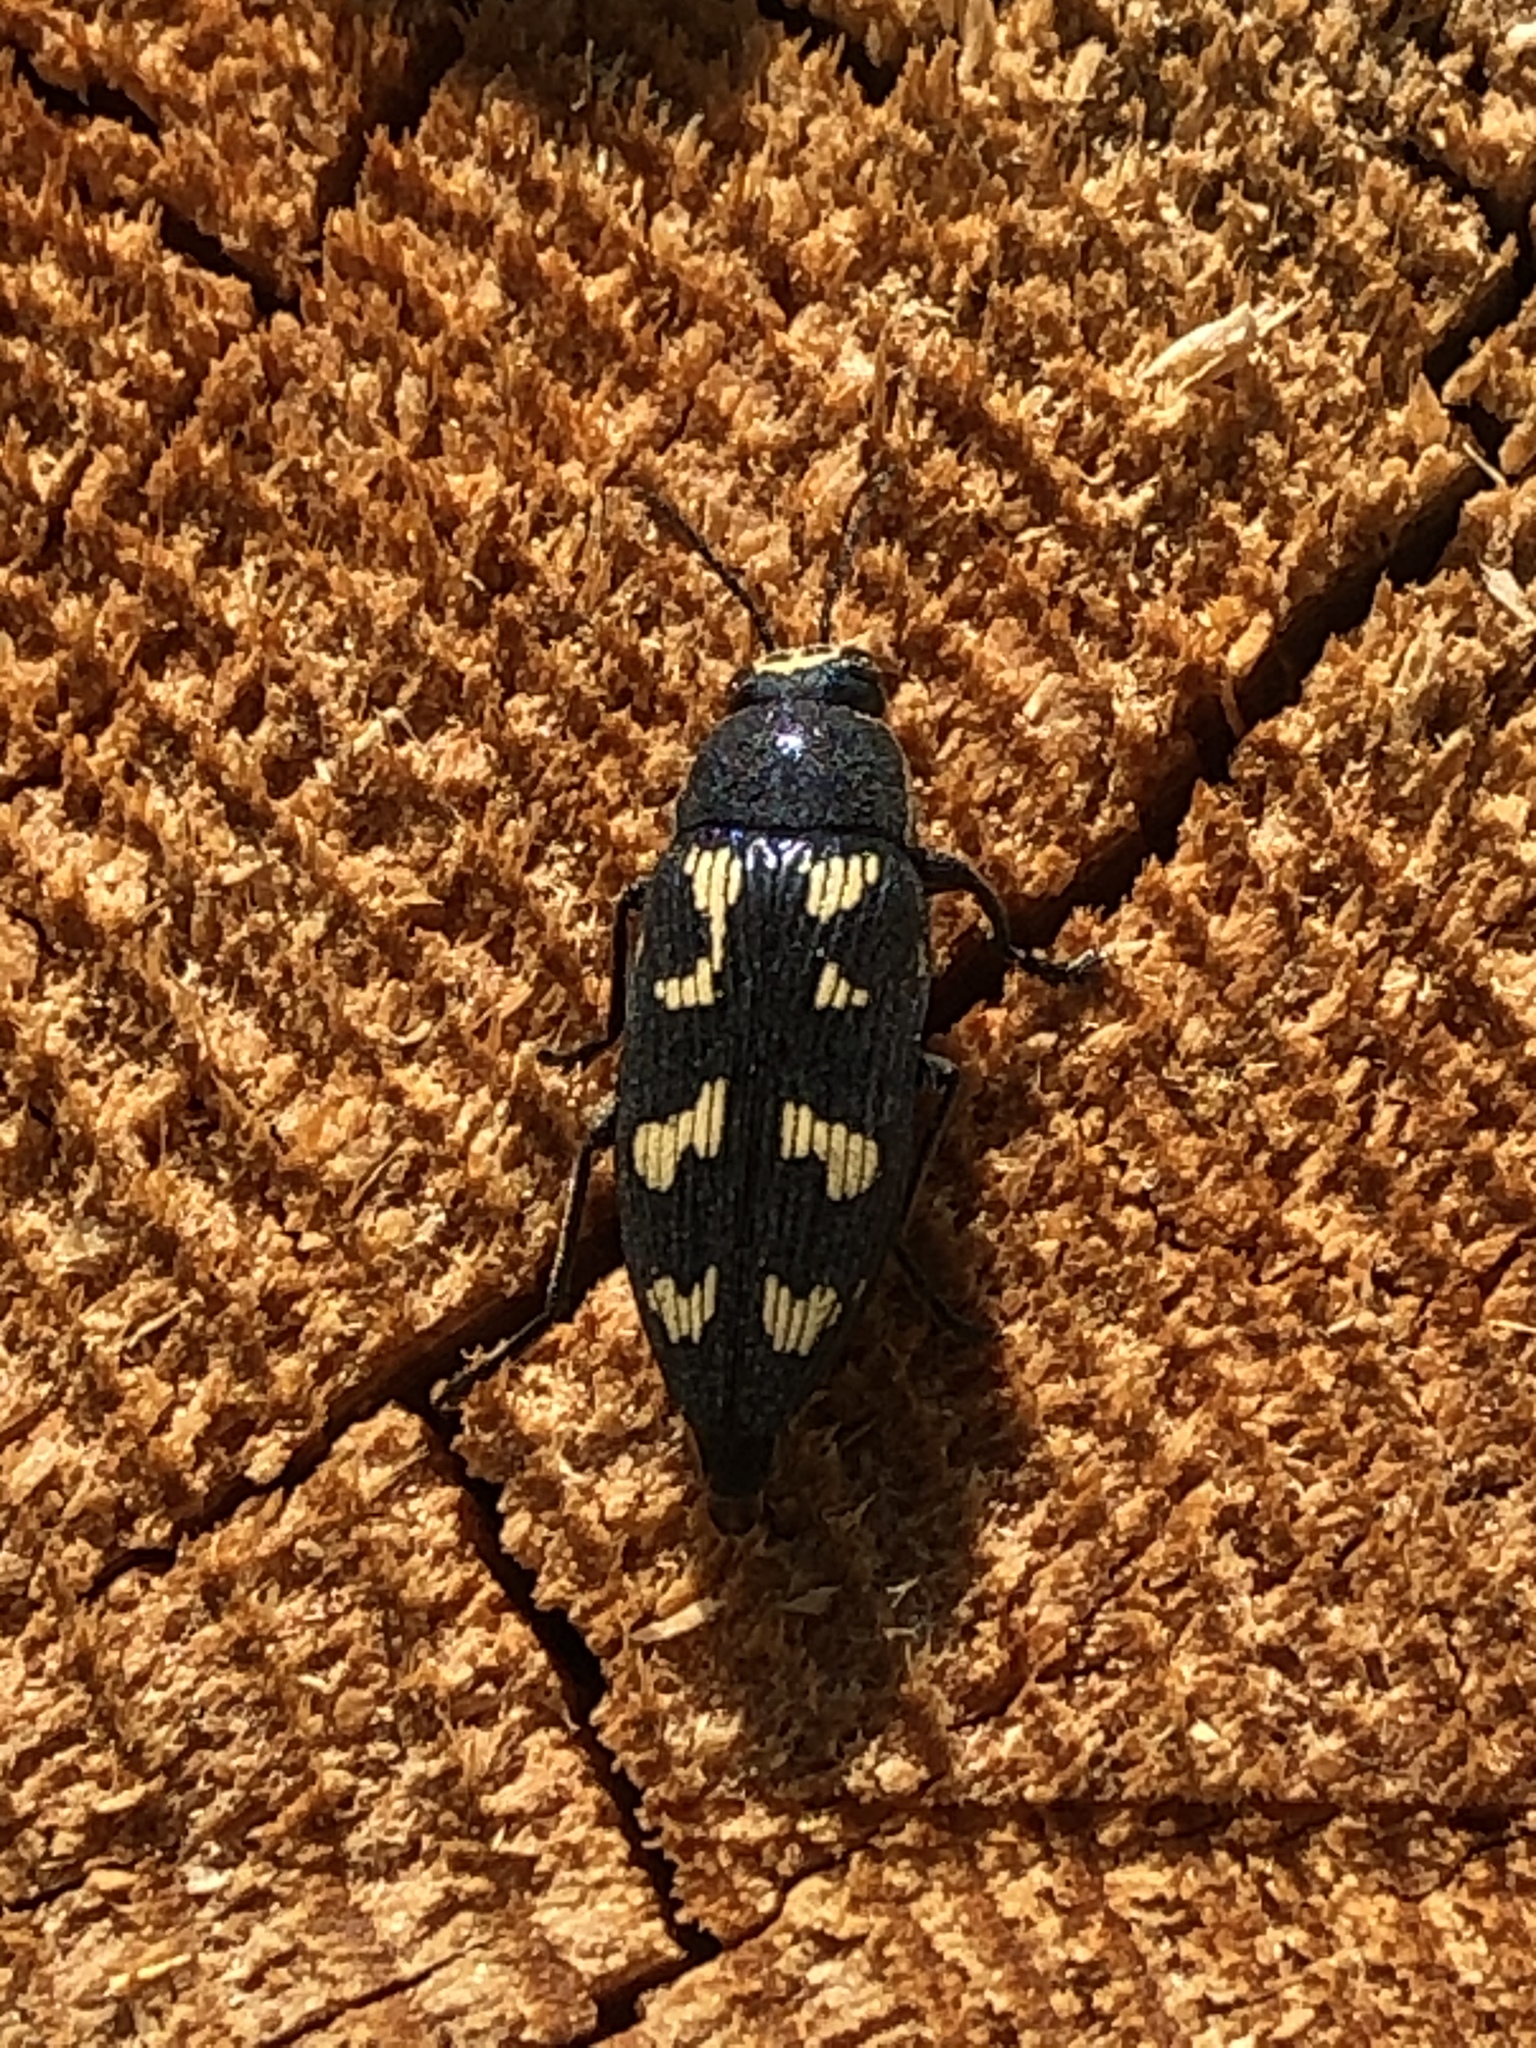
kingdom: Animalia
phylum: Arthropoda
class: Insecta
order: Coleoptera
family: Buprestidae
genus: Buprestis
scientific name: Buprestis novemmaculata
